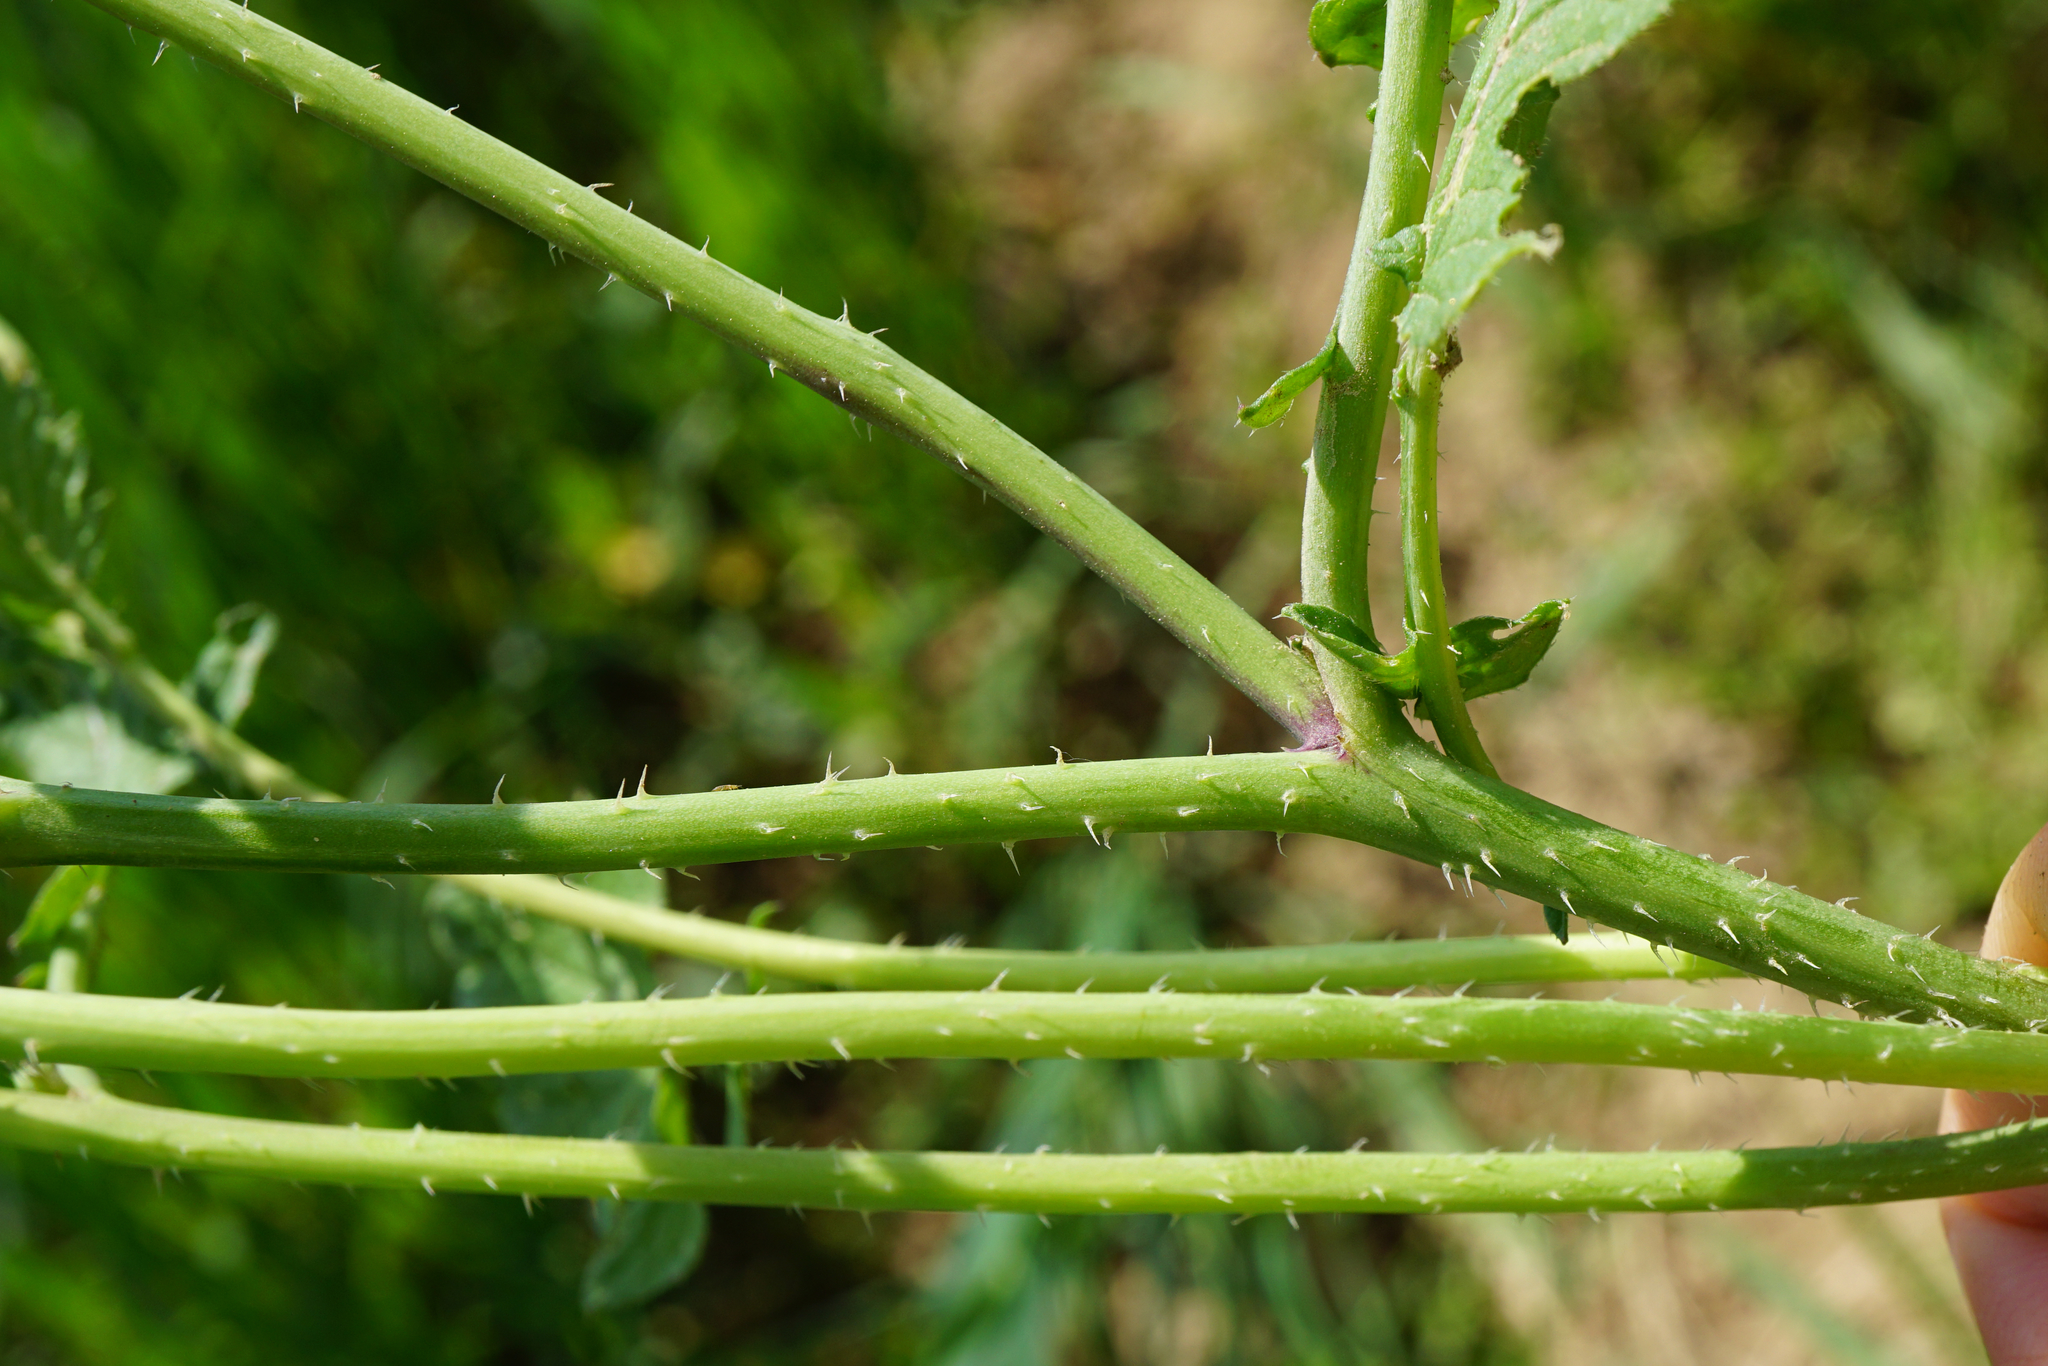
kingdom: Plantae
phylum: Tracheophyta
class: Magnoliopsida
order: Brassicales
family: Brassicaceae
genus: Raphanus
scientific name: Raphanus raphanistrum
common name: Wild radish
